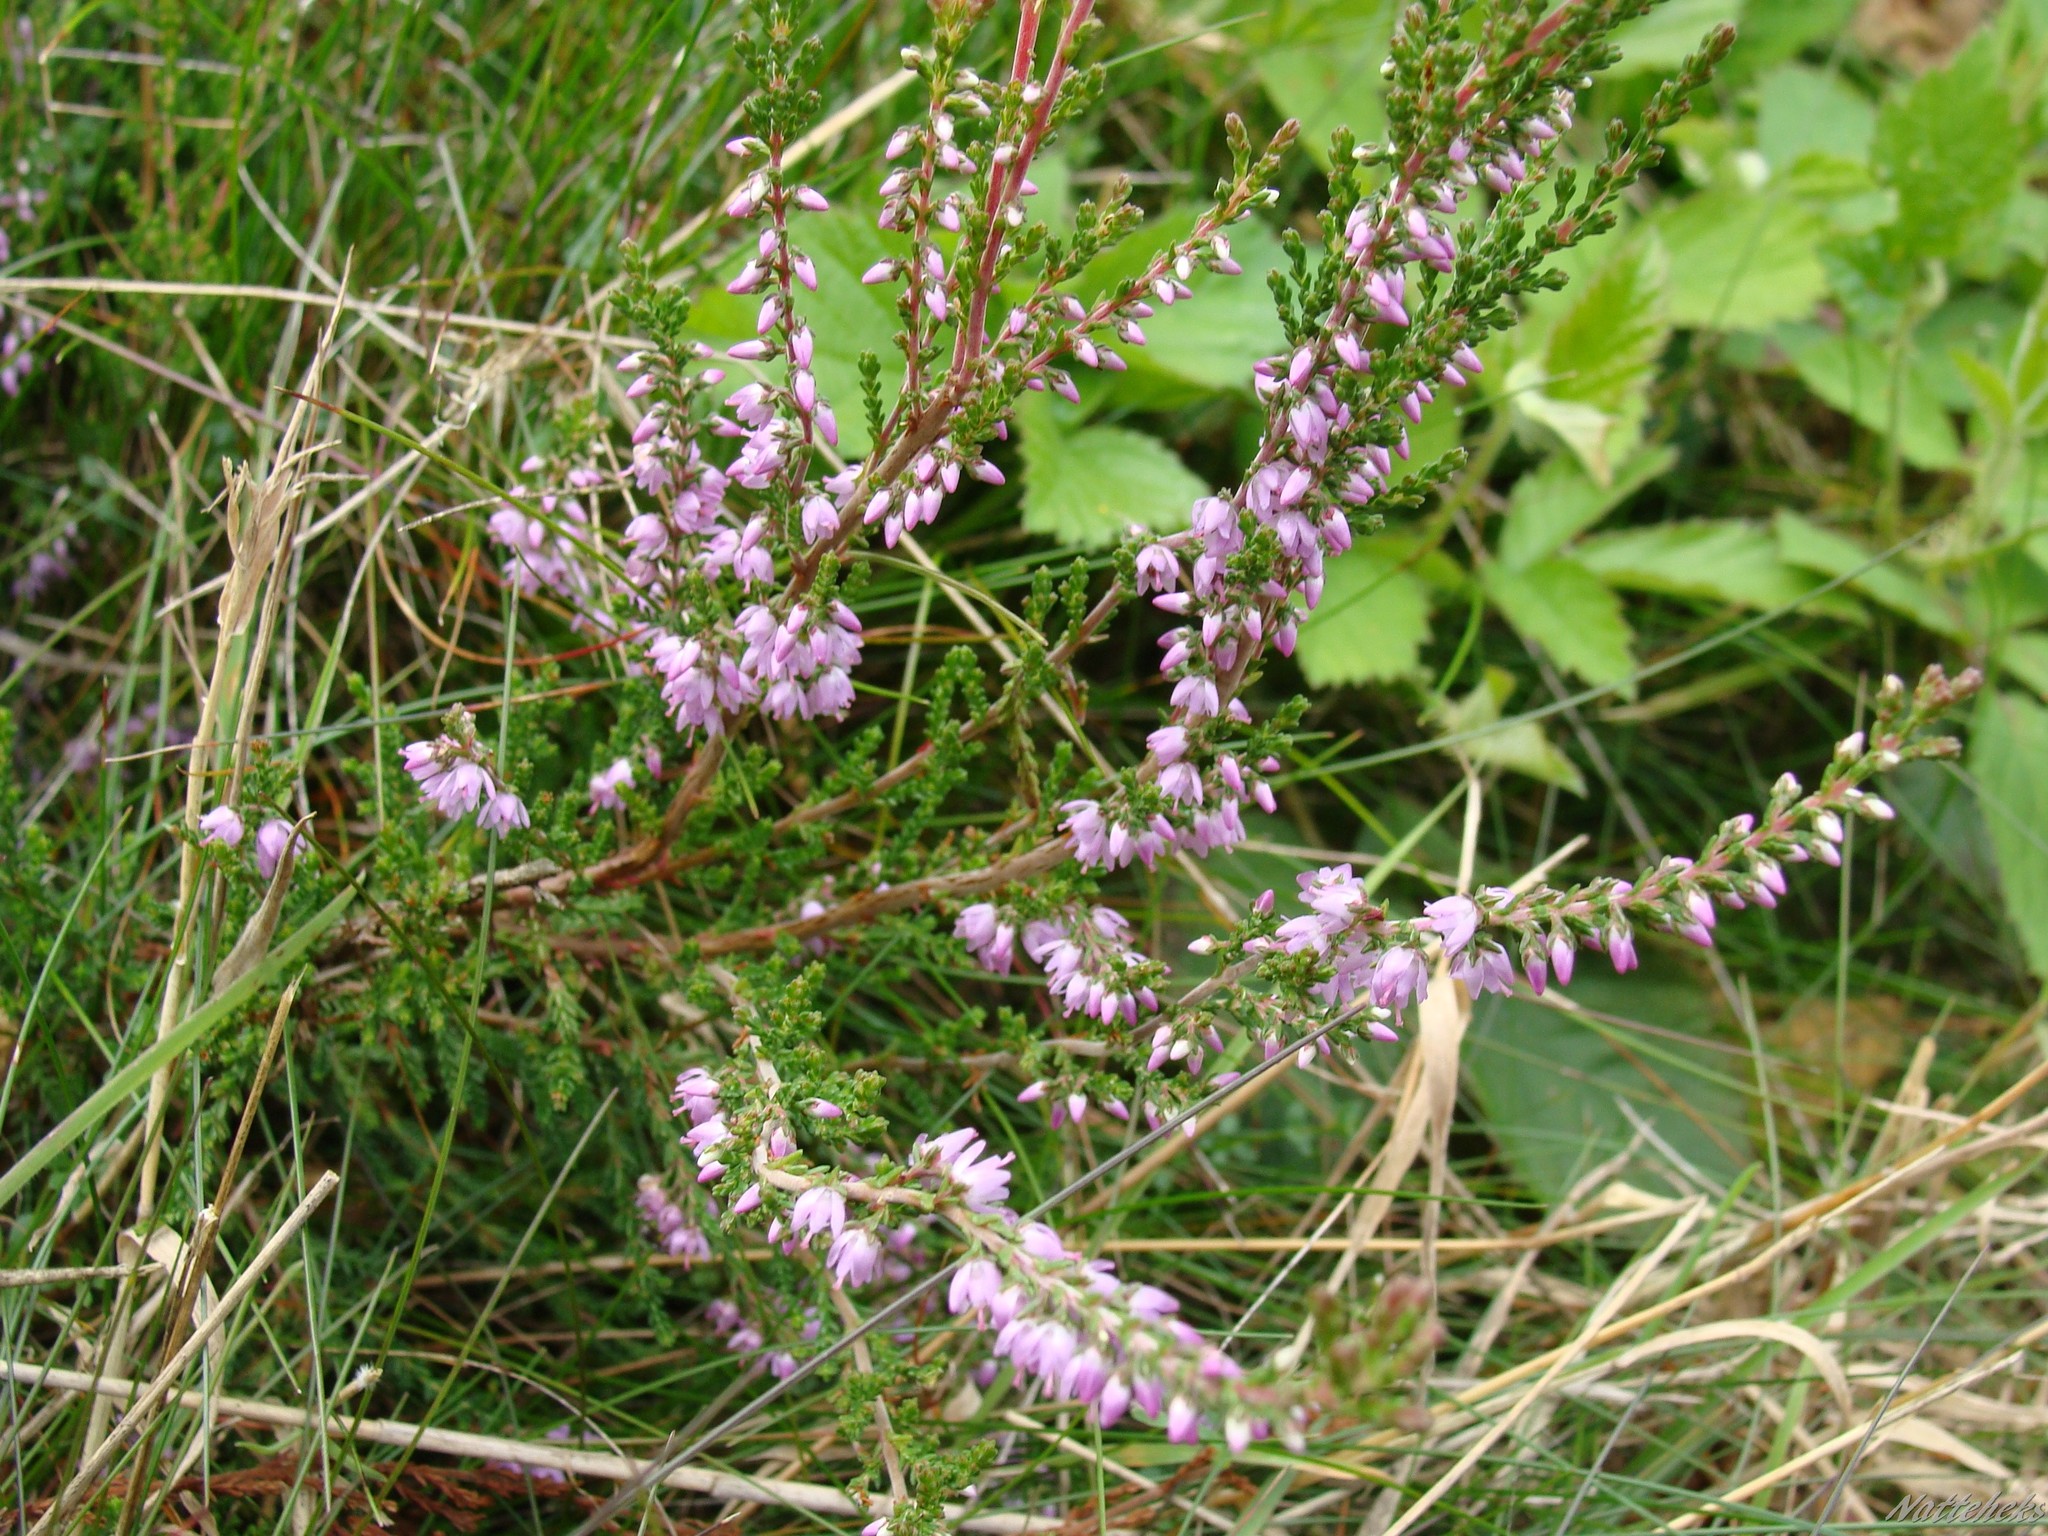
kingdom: Plantae
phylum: Tracheophyta
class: Magnoliopsida
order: Ericales
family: Ericaceae
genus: Calluna
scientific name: Calluna vulgaris
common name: Heather
